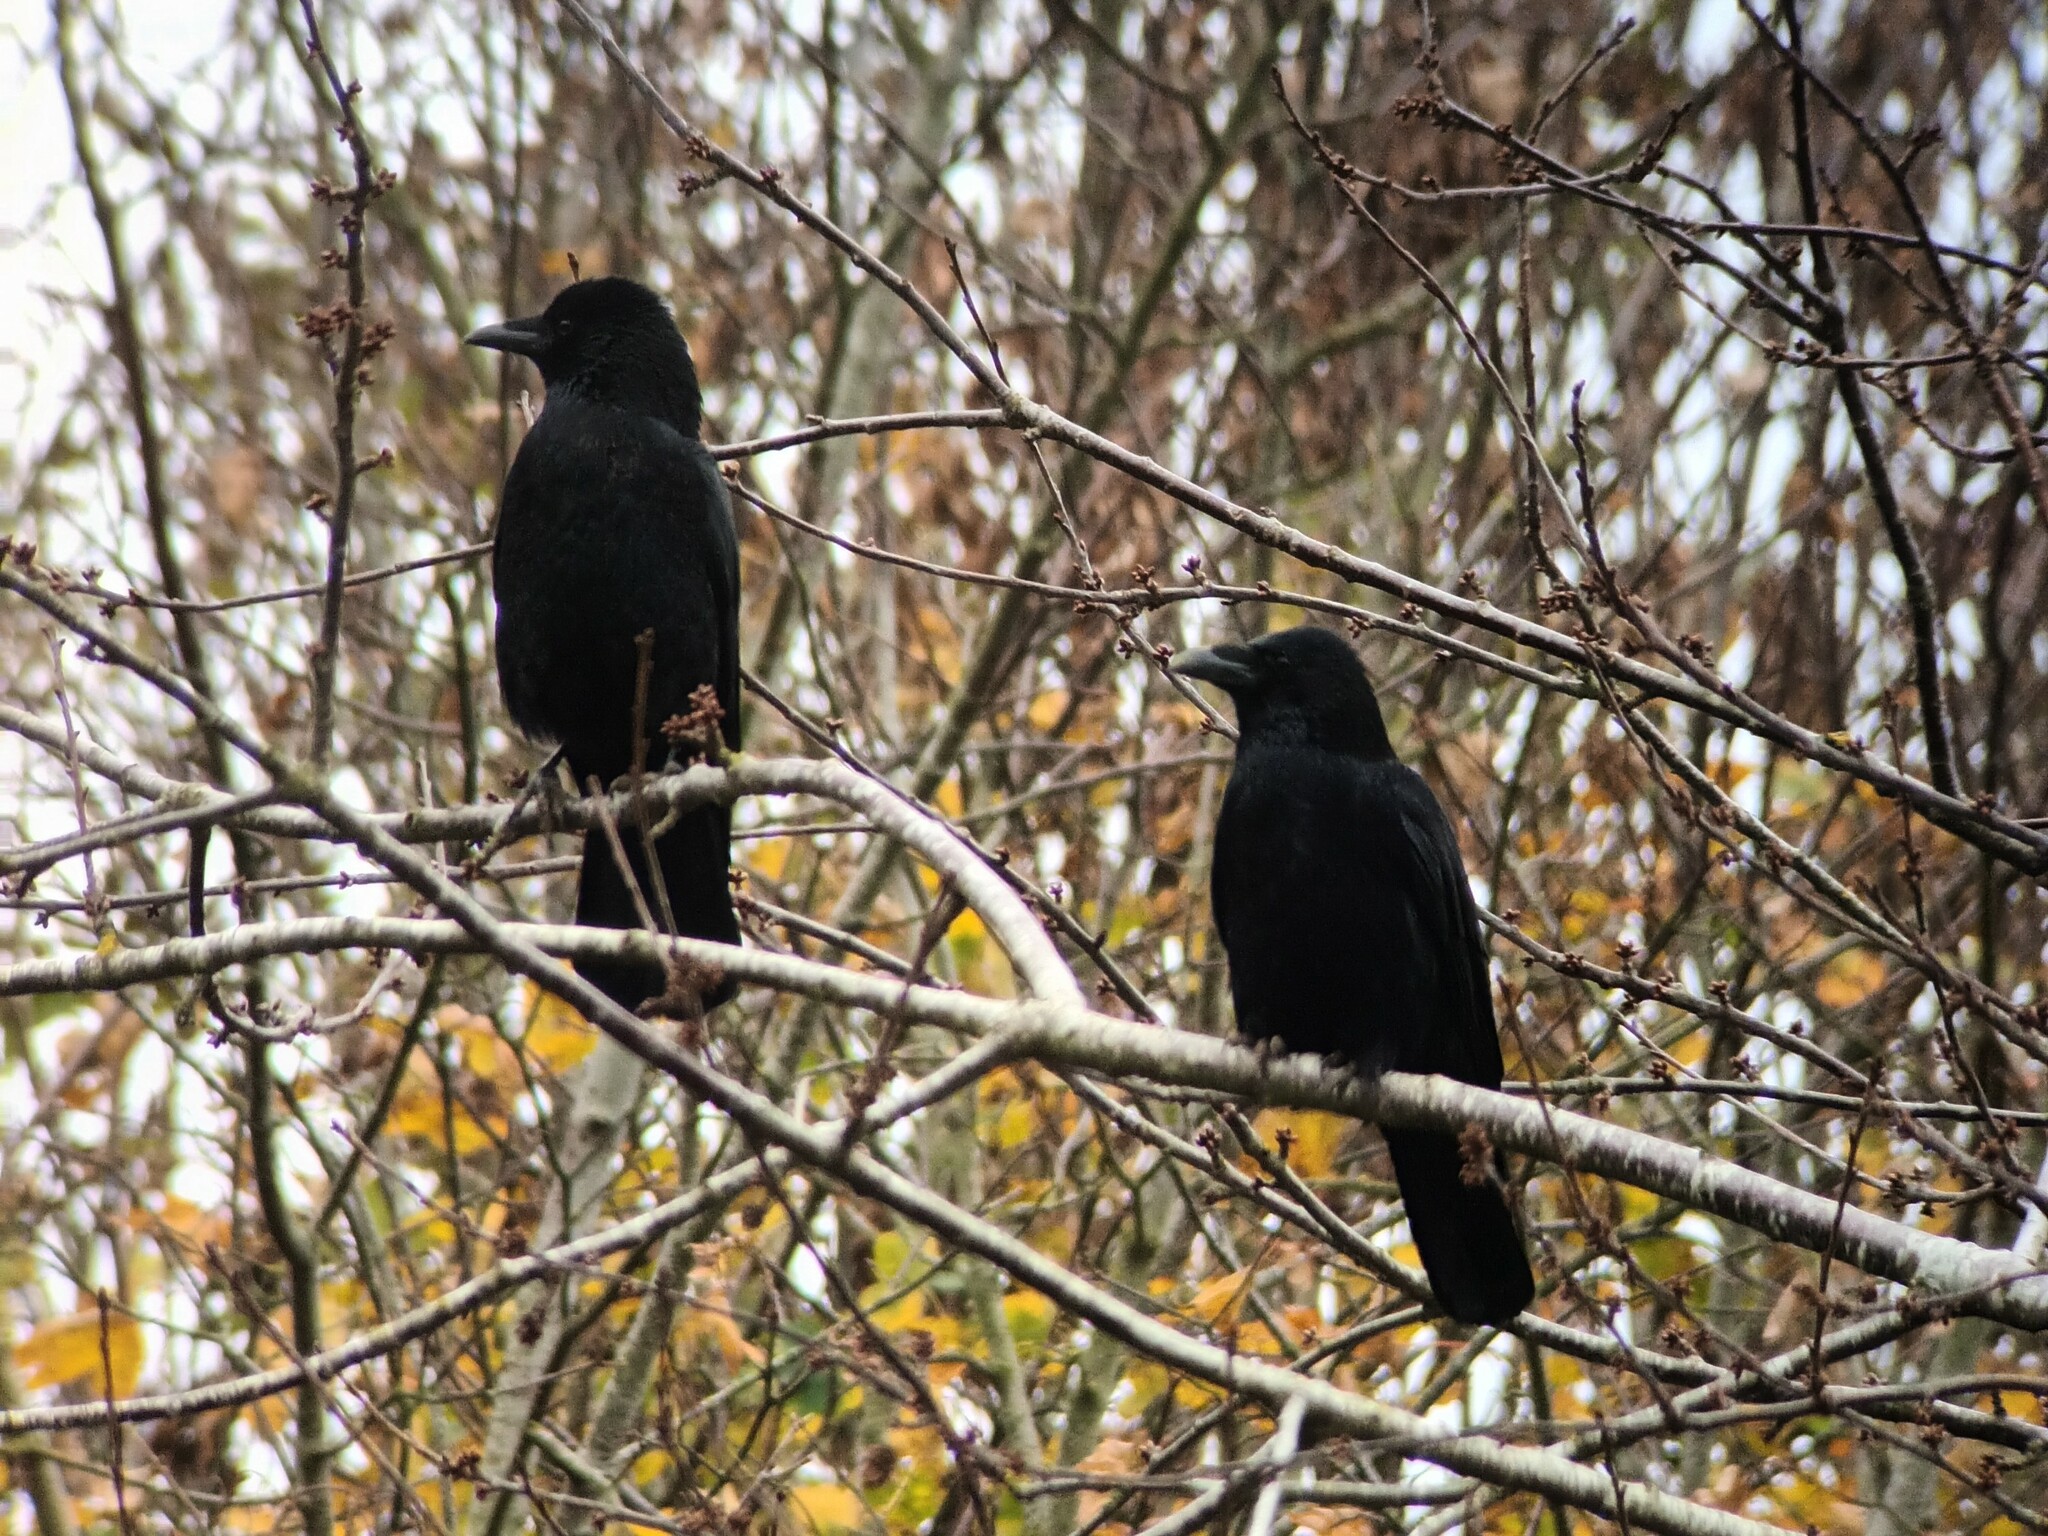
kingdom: Animalia
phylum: Chordata
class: Aves
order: Passeriformes
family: Corvidae
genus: Corvus
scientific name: Corvus corone
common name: Carrion crow
